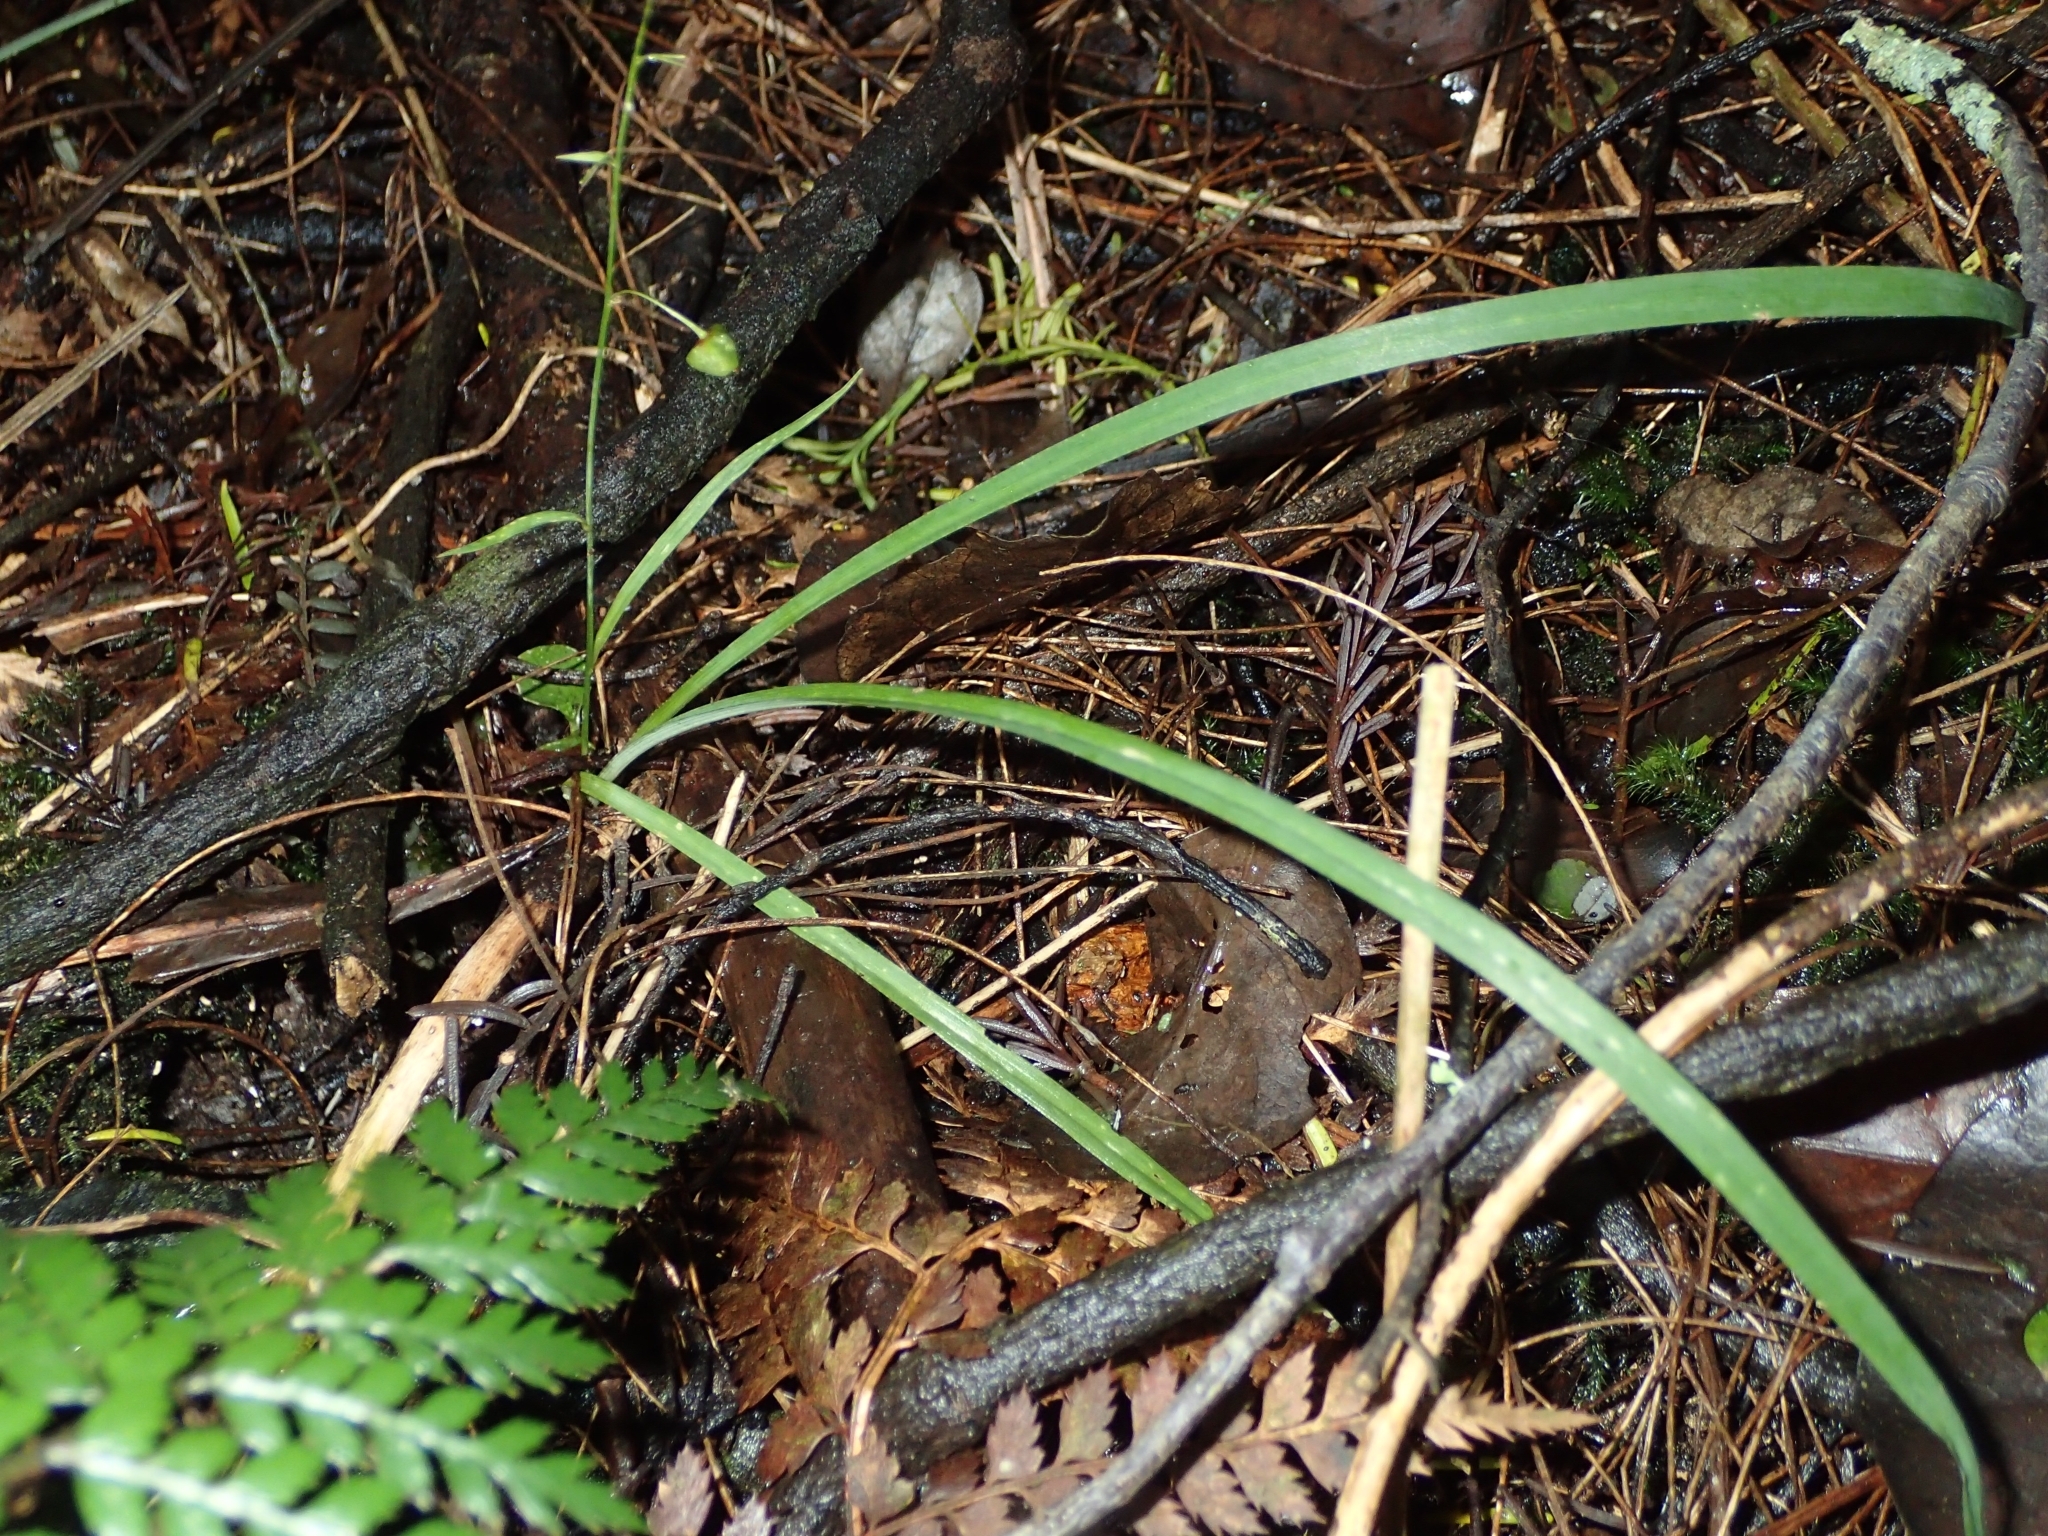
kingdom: Plantae
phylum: Tracheophyta
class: Liliopsida
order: Asparagales
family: Asparagaceae
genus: Arthropodium
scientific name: Arthropodium candidum
